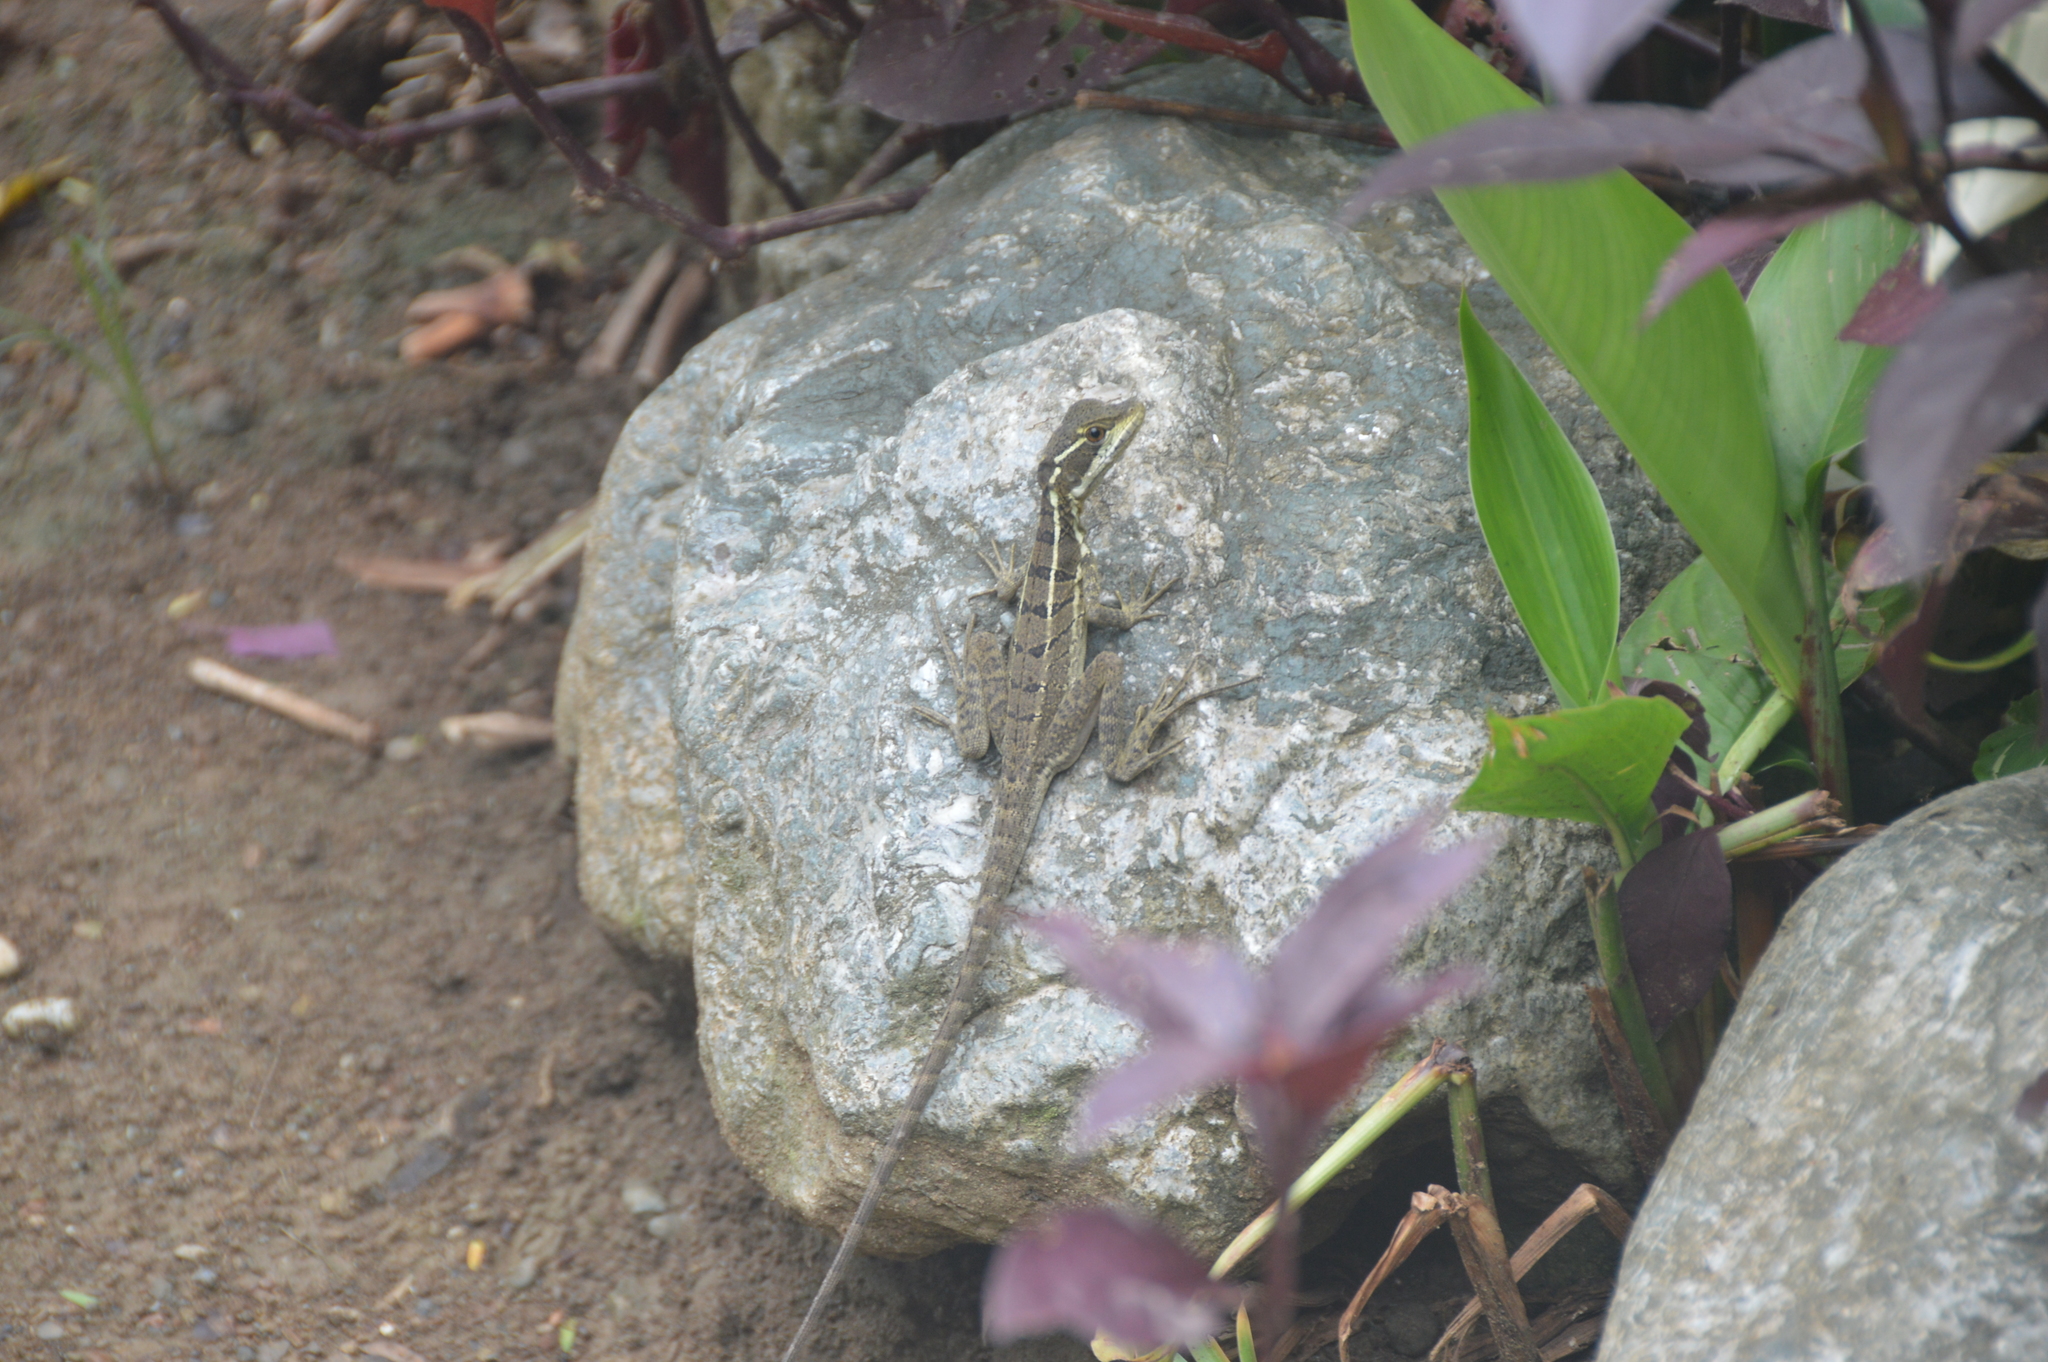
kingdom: Animalia
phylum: Chordata
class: Squamata
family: Corytophanidae
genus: Basiliscus
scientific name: Basiliscus basiliscus
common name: Common basilisk
